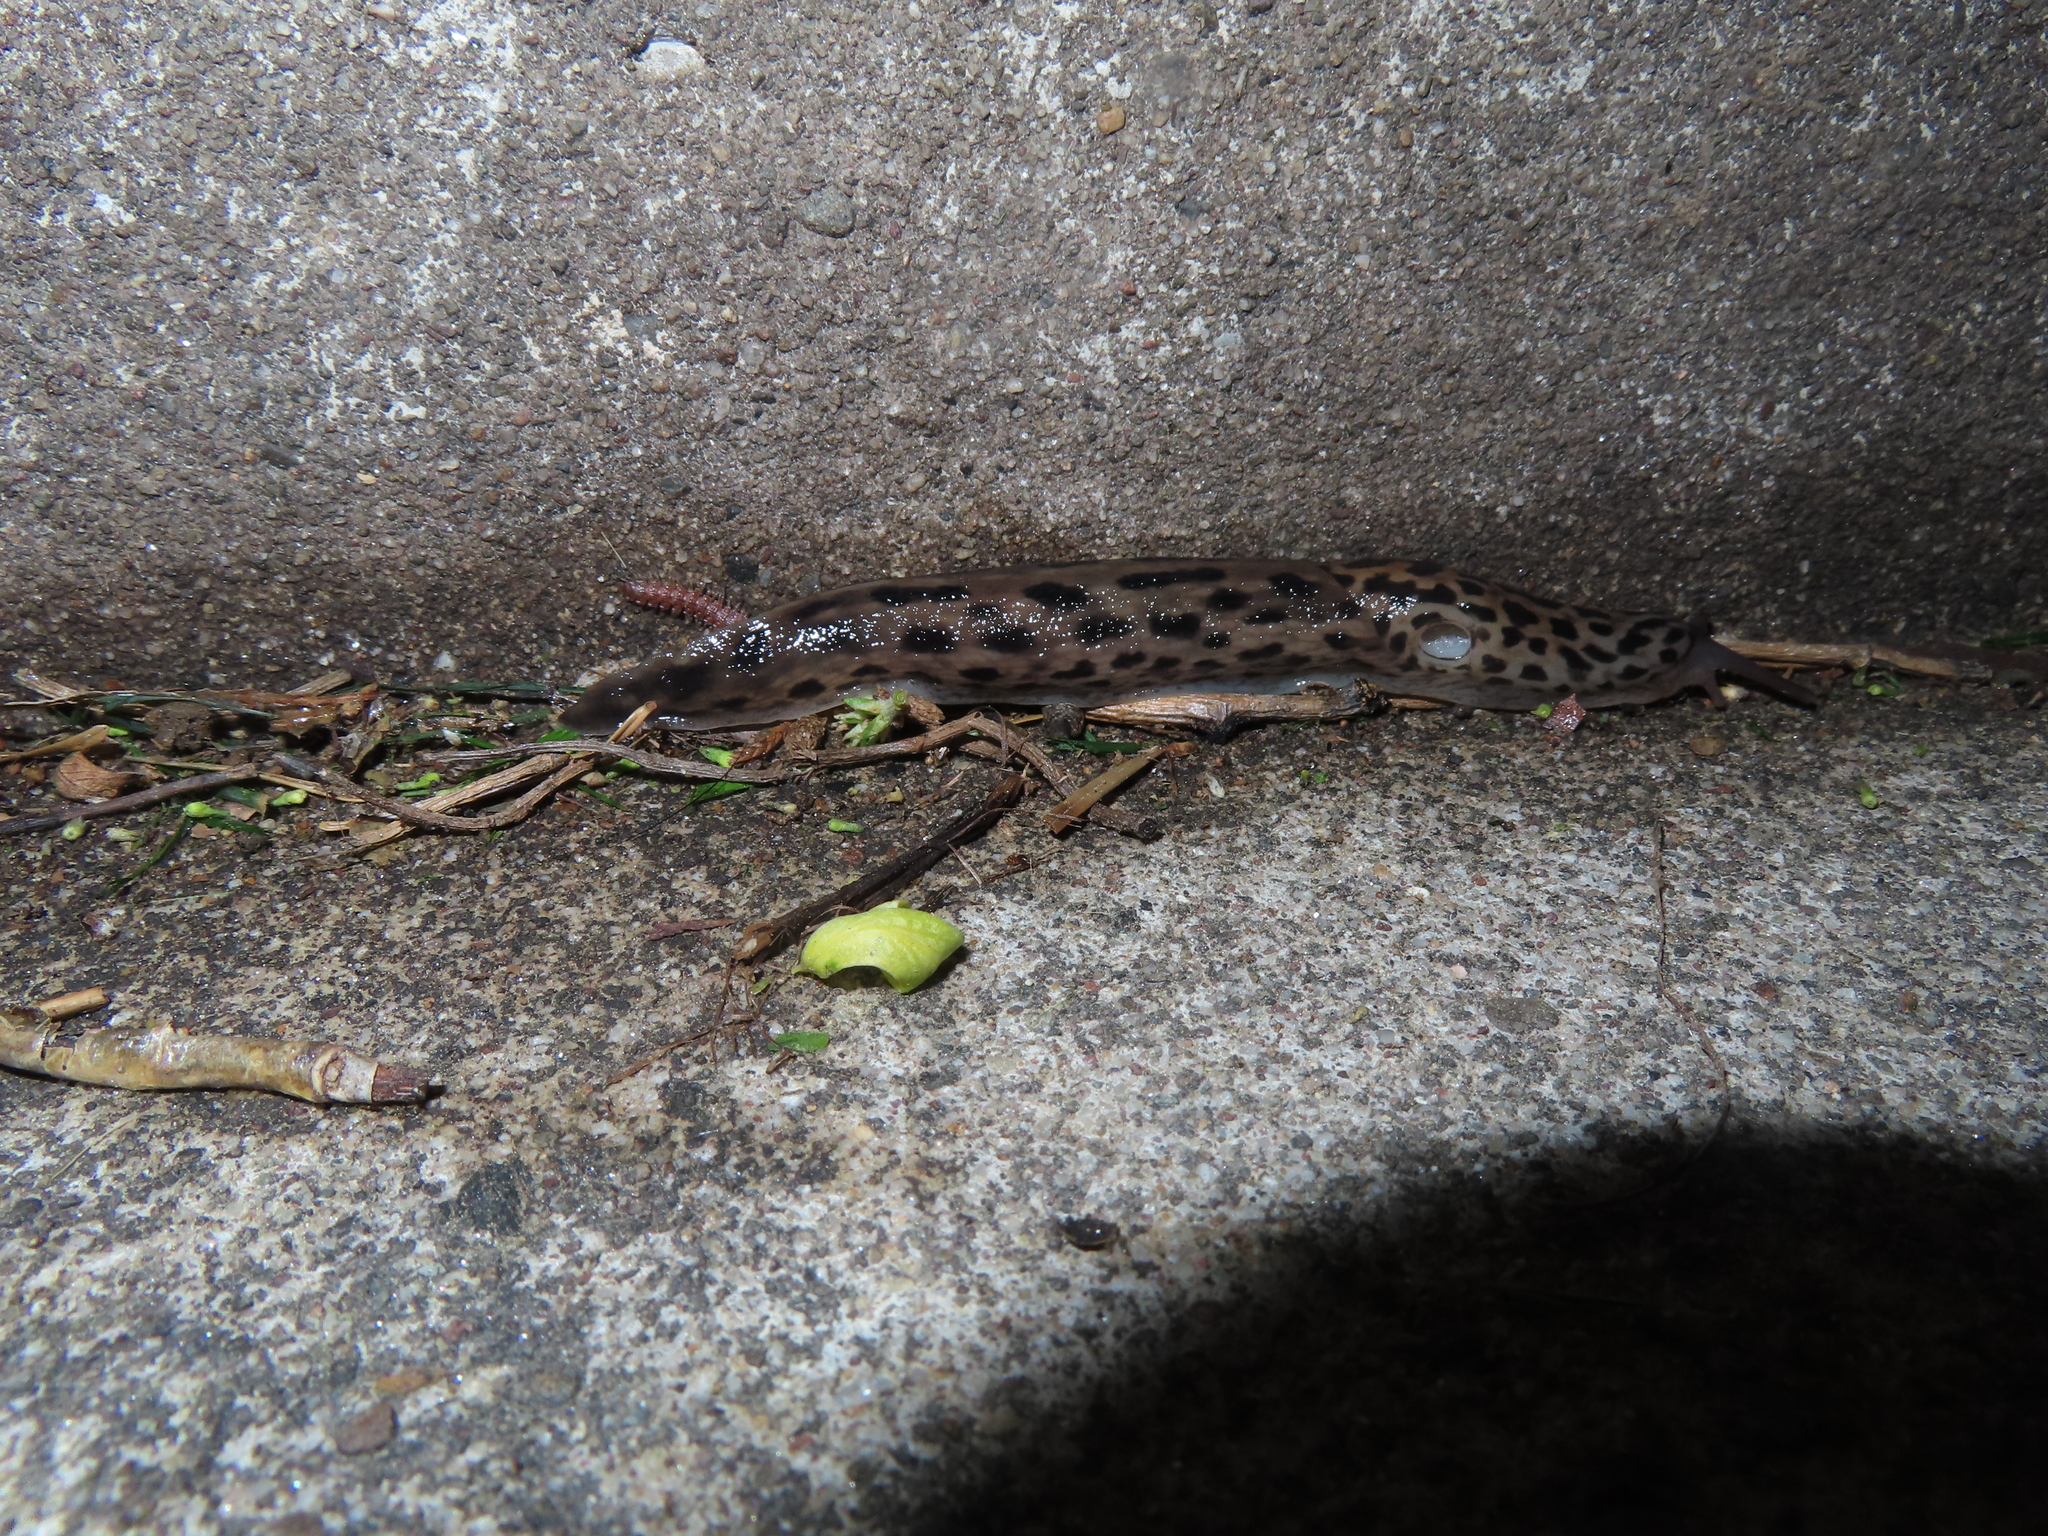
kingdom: Animalia
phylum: Mollusca
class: Gastropoda
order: Stylommatophora
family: Limacidae
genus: Limax
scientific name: Limax maximus
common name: Great grey slug
